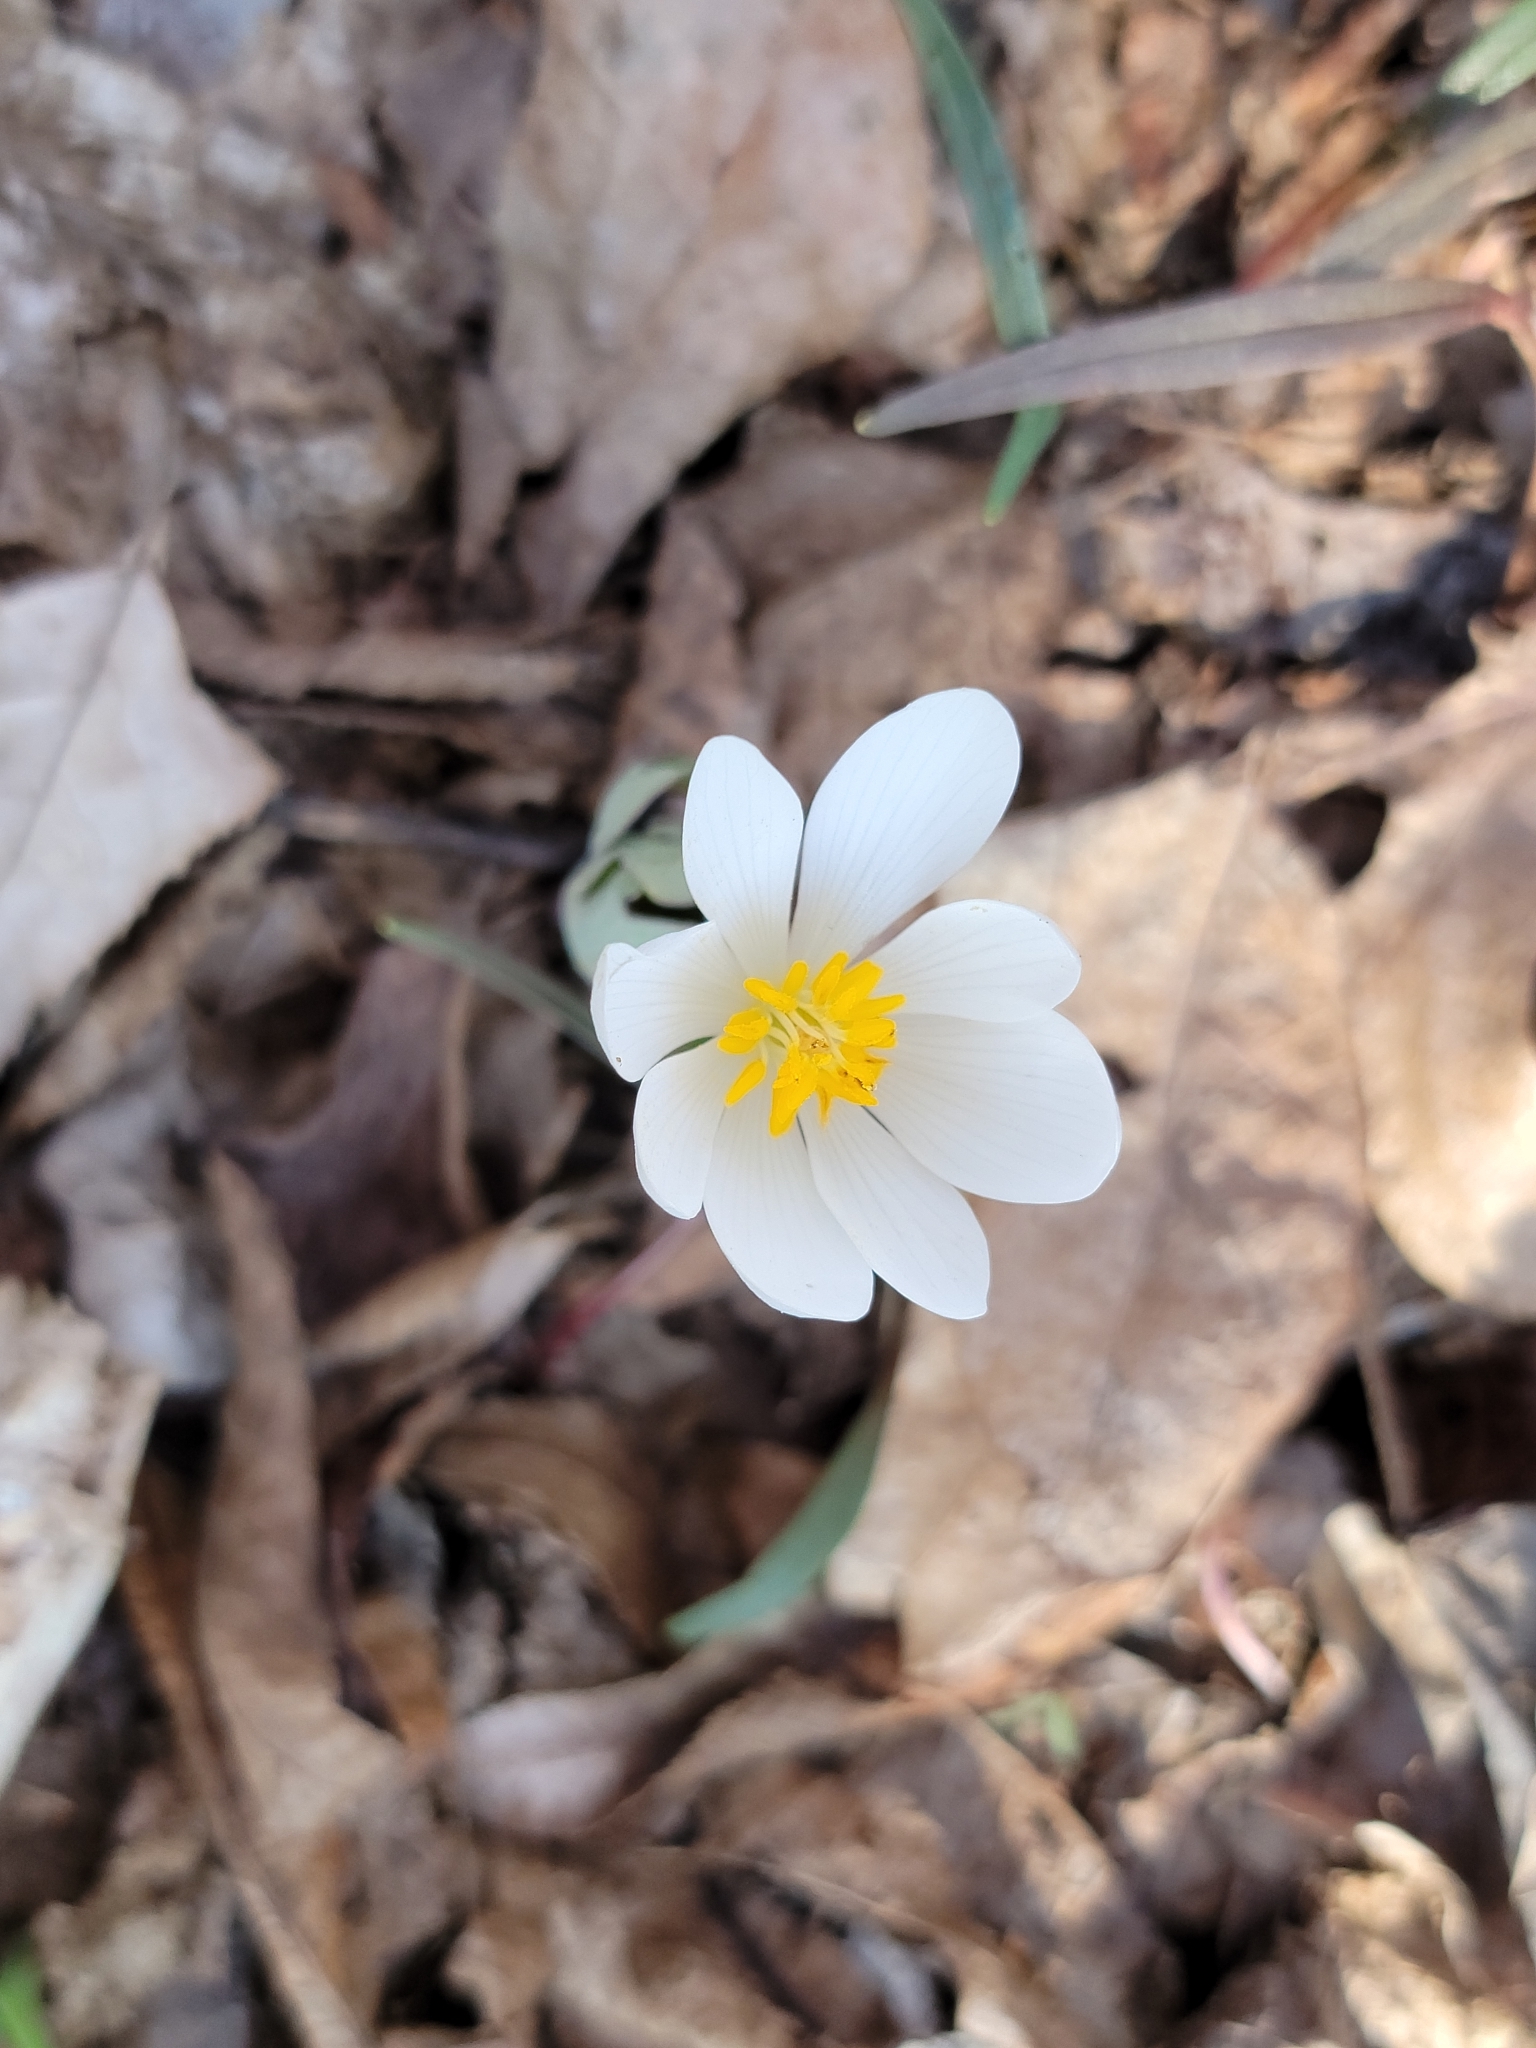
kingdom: Plantae
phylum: Tracheophyta
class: Magnoliopsida
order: Ranunculales
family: Papaveraceae
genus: Sanguinaria
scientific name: Sanguinaria canadensis
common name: Bloodroot
